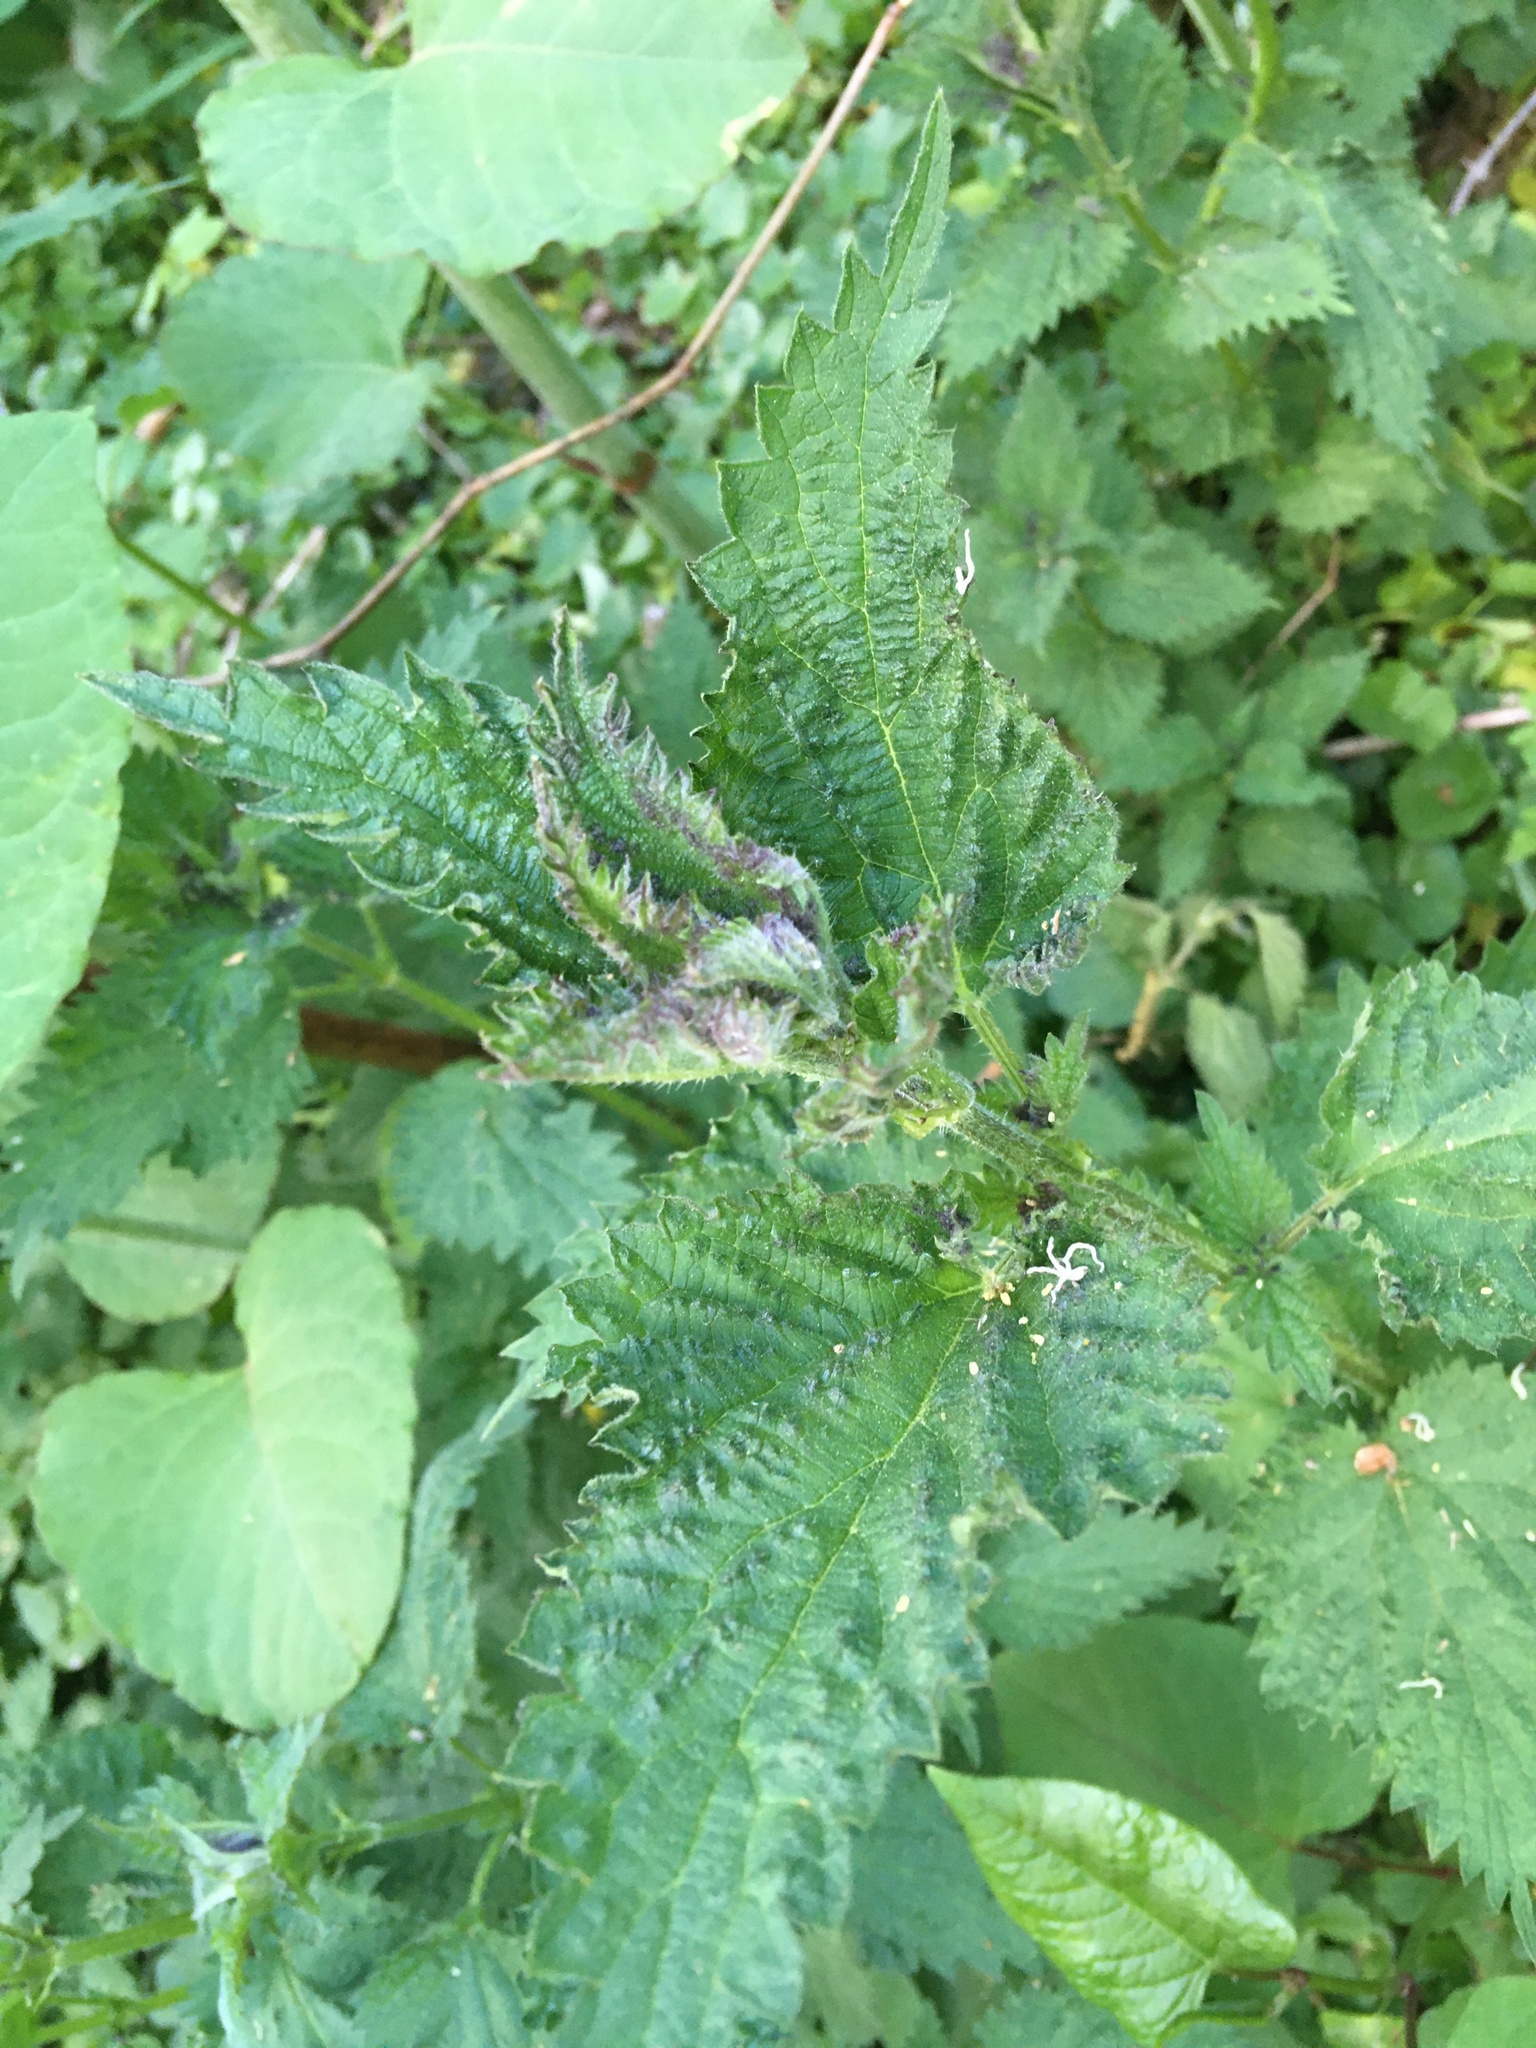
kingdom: Plantae
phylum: Tracheophyta
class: Magnoliopsida
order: Rosales
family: Urticaceae
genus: Urtica
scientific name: Urtica dioica
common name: Common nettle
